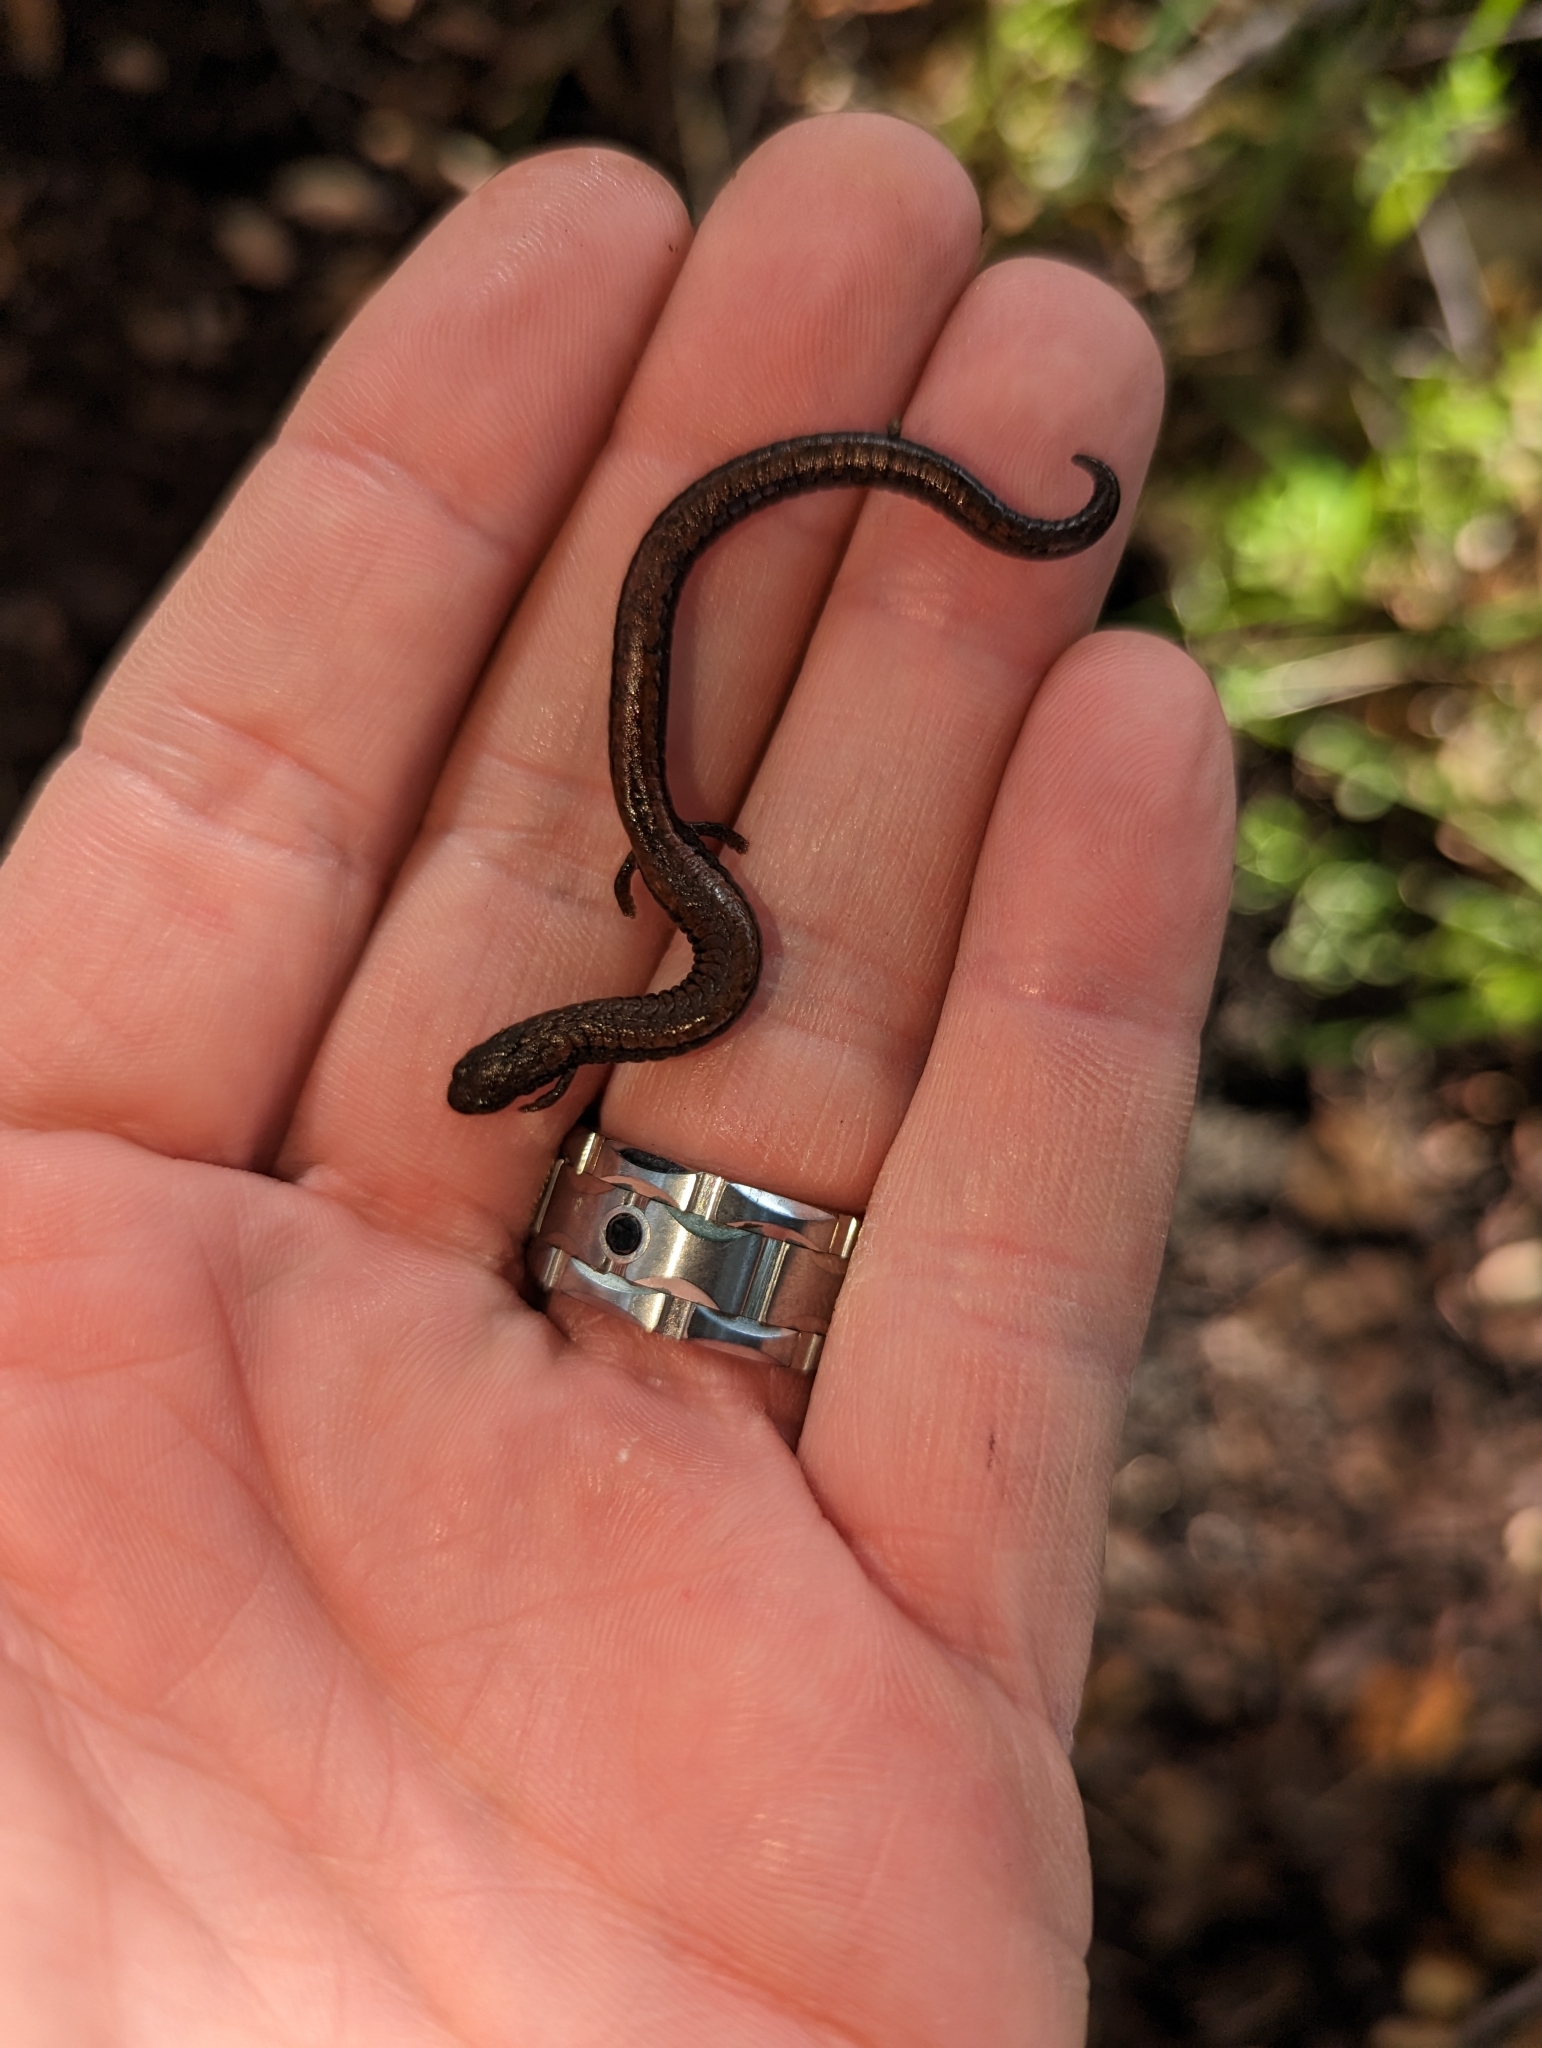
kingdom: Animalia
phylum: Chordata
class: Amphibia
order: Caudata
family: Plethodontidae
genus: Batrachoseps
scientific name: Batrachoseps nigriventris
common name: Black-bellied slender salamander
